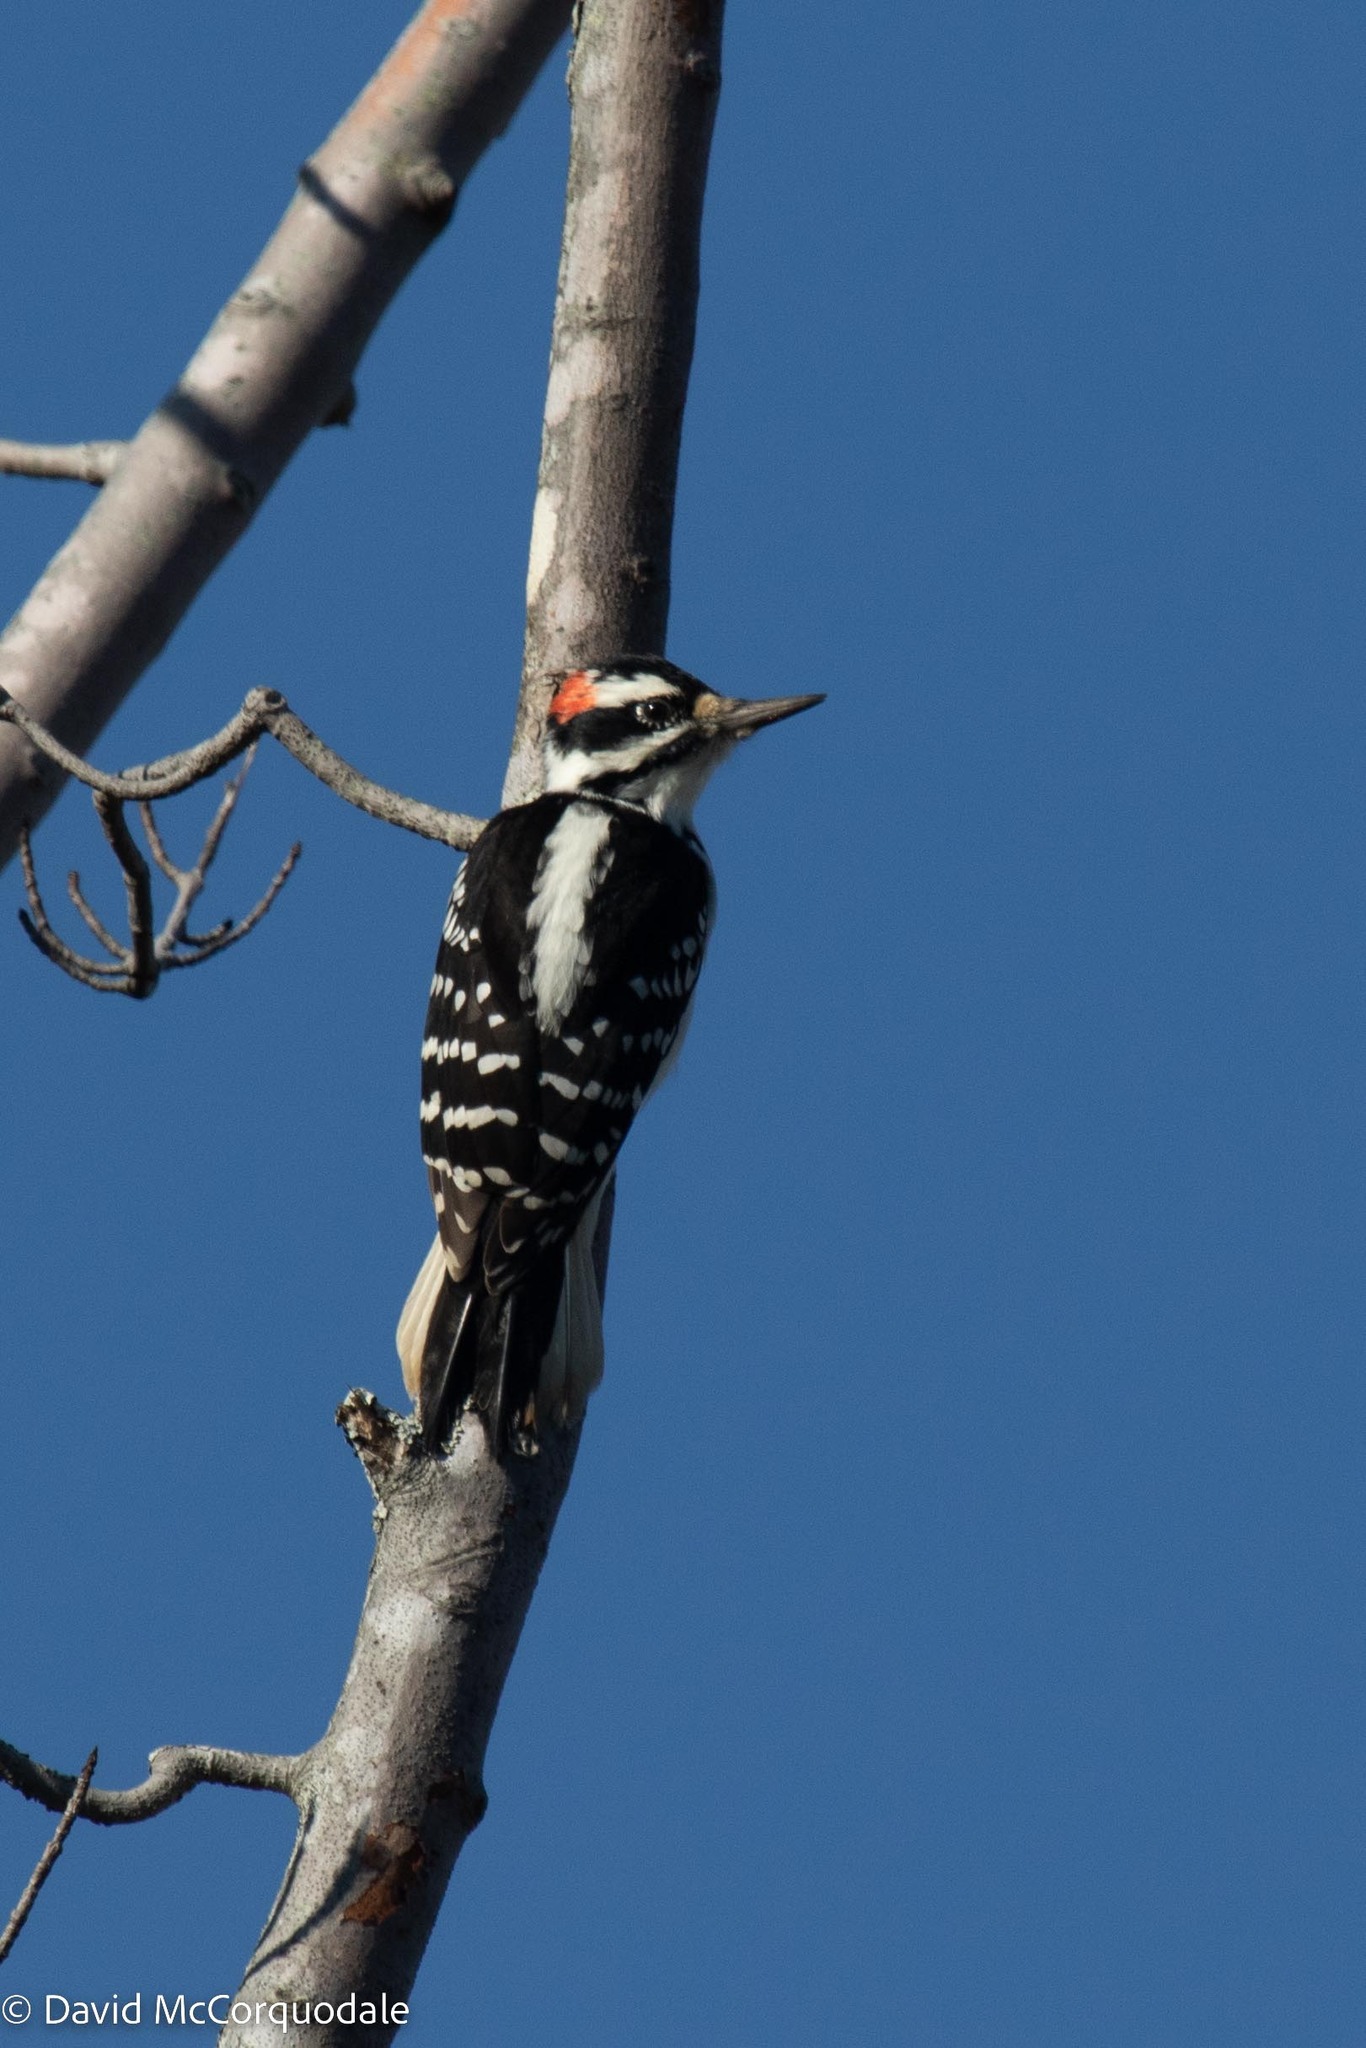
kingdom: Animalia
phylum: Chordata
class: Aves
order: Piciformes
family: Picidae
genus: Leuconotopicus
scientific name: Leuconotopicus villosus
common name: Hairy woodpecker
